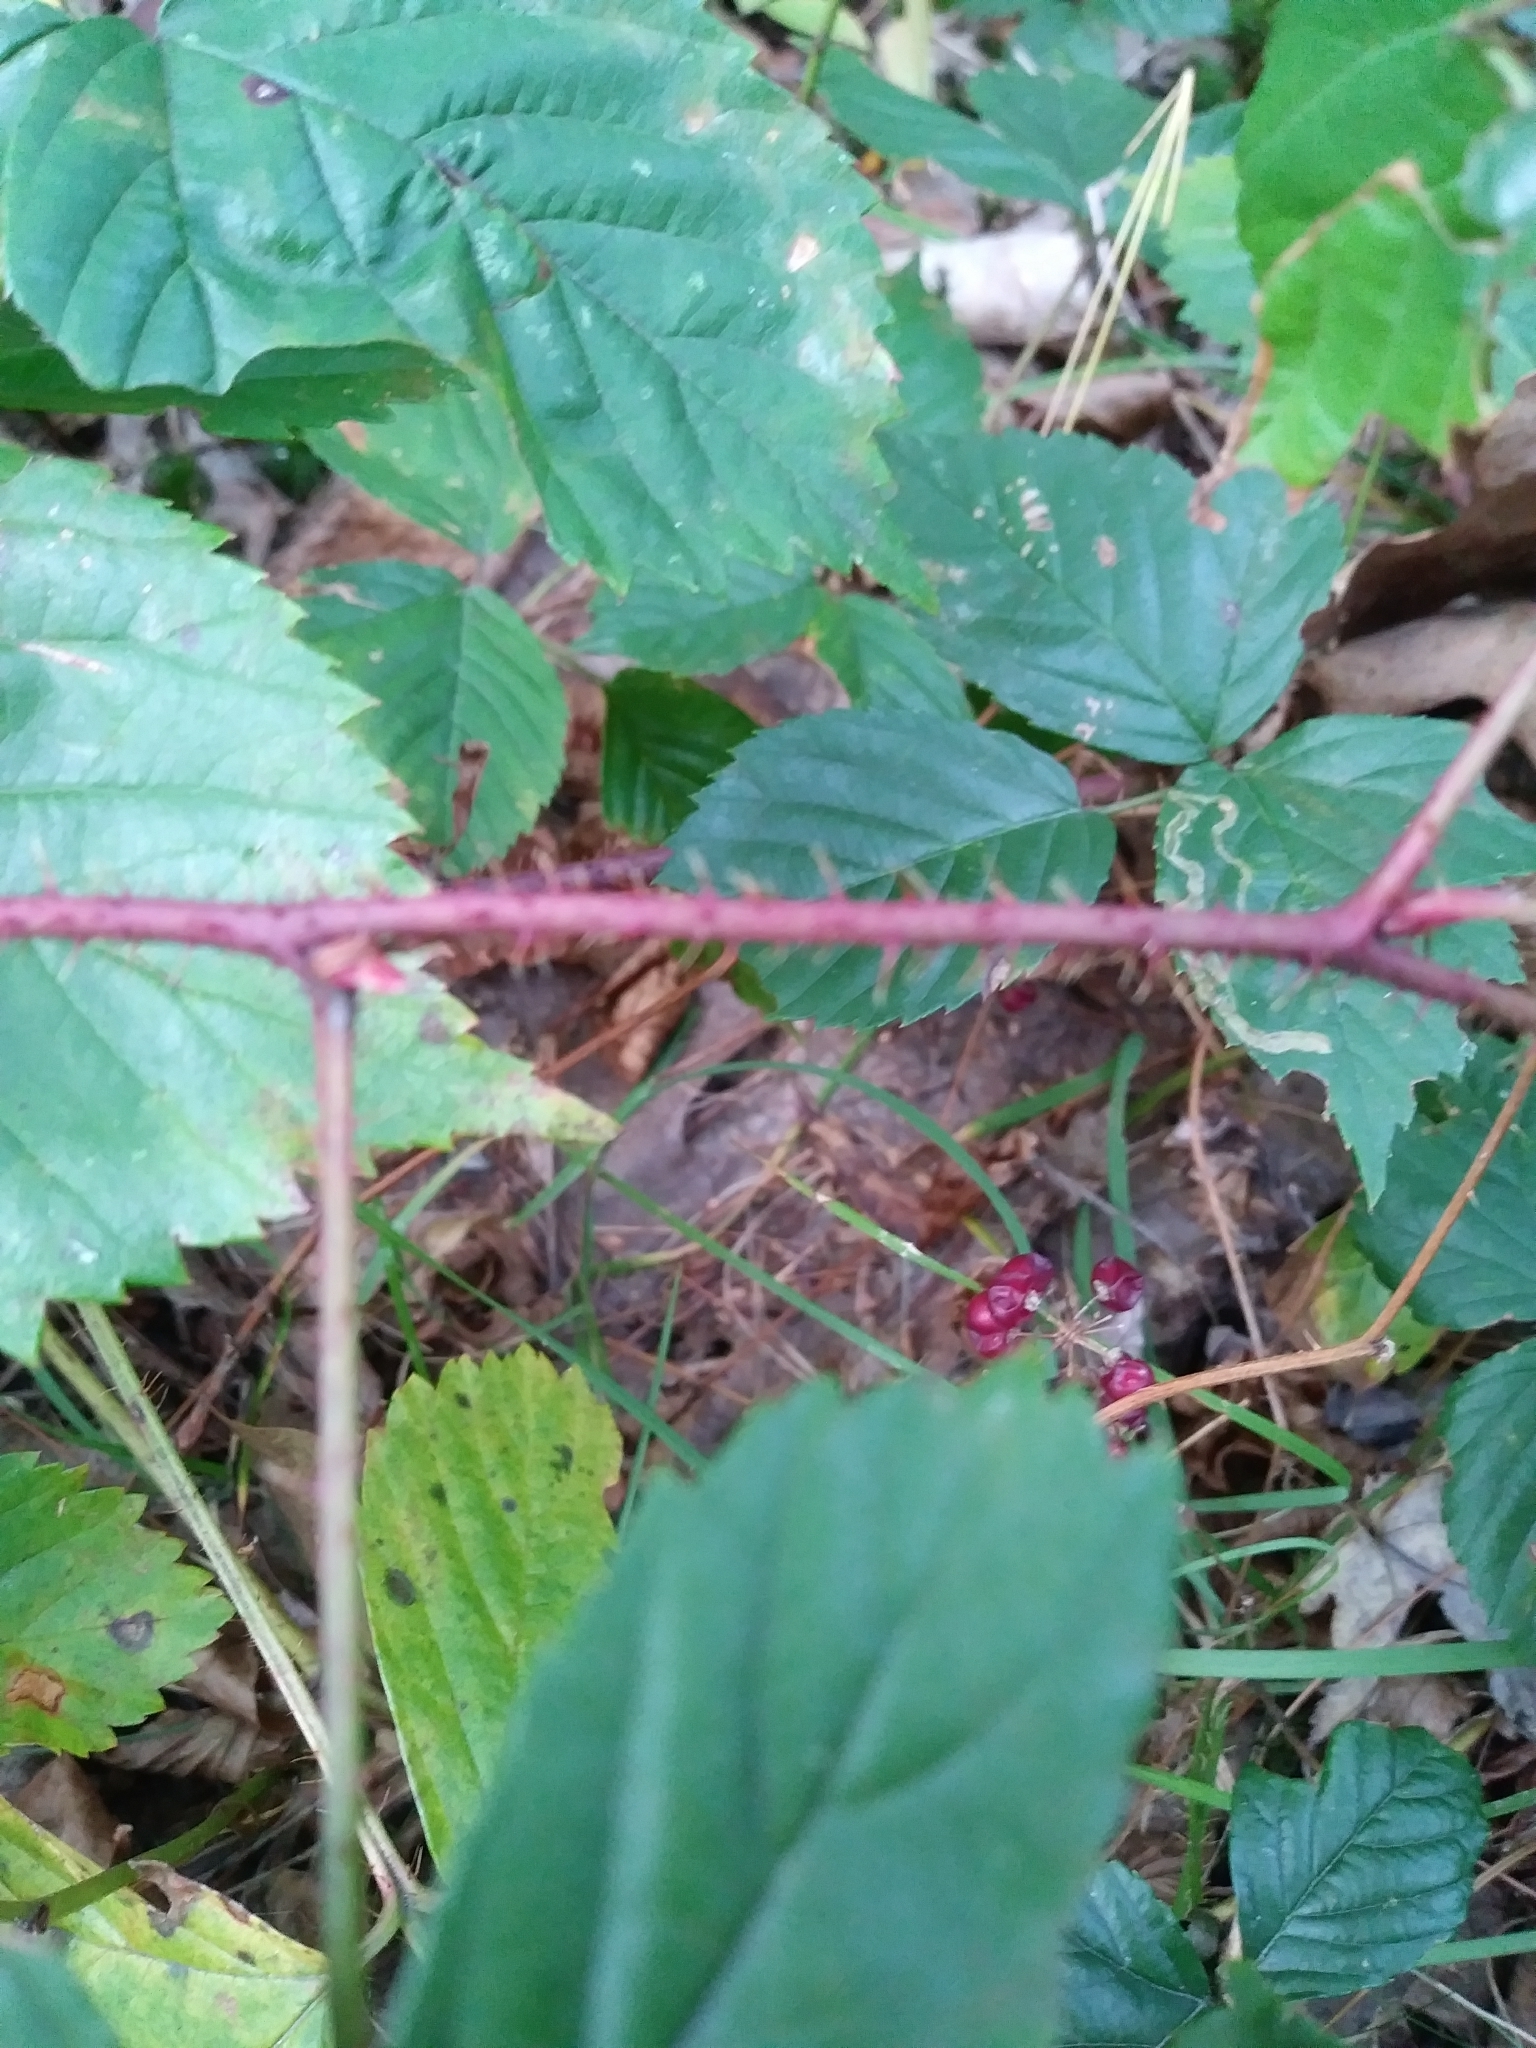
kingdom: Plantae
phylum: Tracheophyta
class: Magnoliopsida
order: Rosales
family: Rosaceae
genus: Rubus
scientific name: Rubus hispidus
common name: Running blackberry
